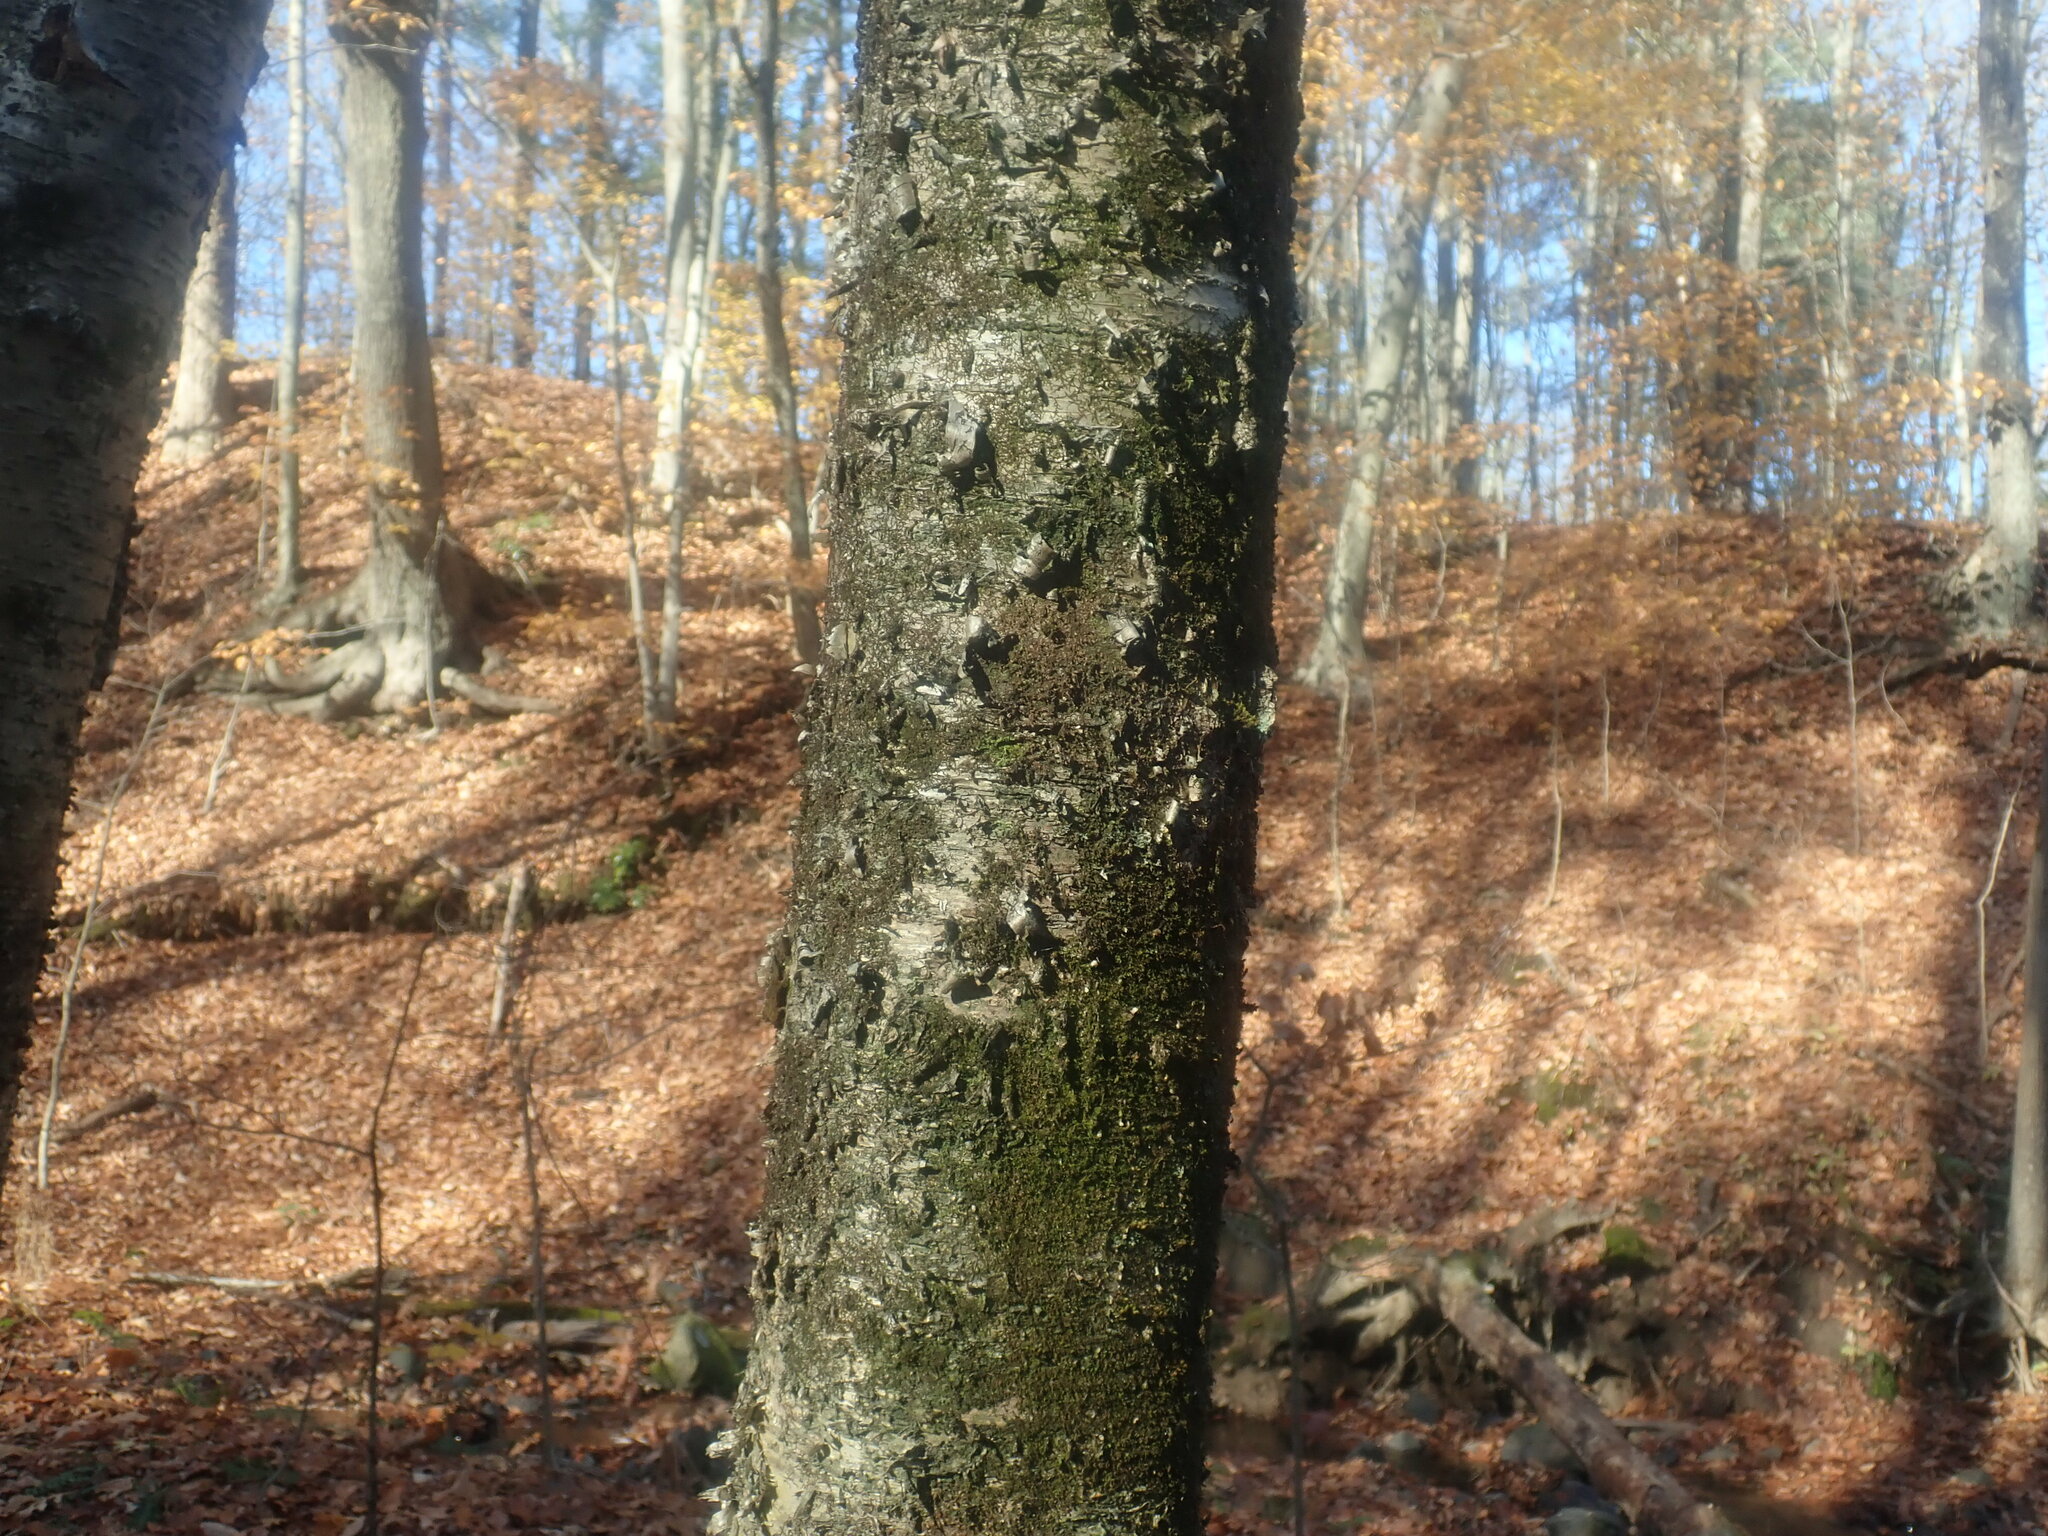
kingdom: Plantae
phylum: Tracheophyta
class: Magnoliopsida
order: Fagales
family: Betulaceae
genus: Betula
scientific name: Betula alleghaniensis
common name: Yellow birch
